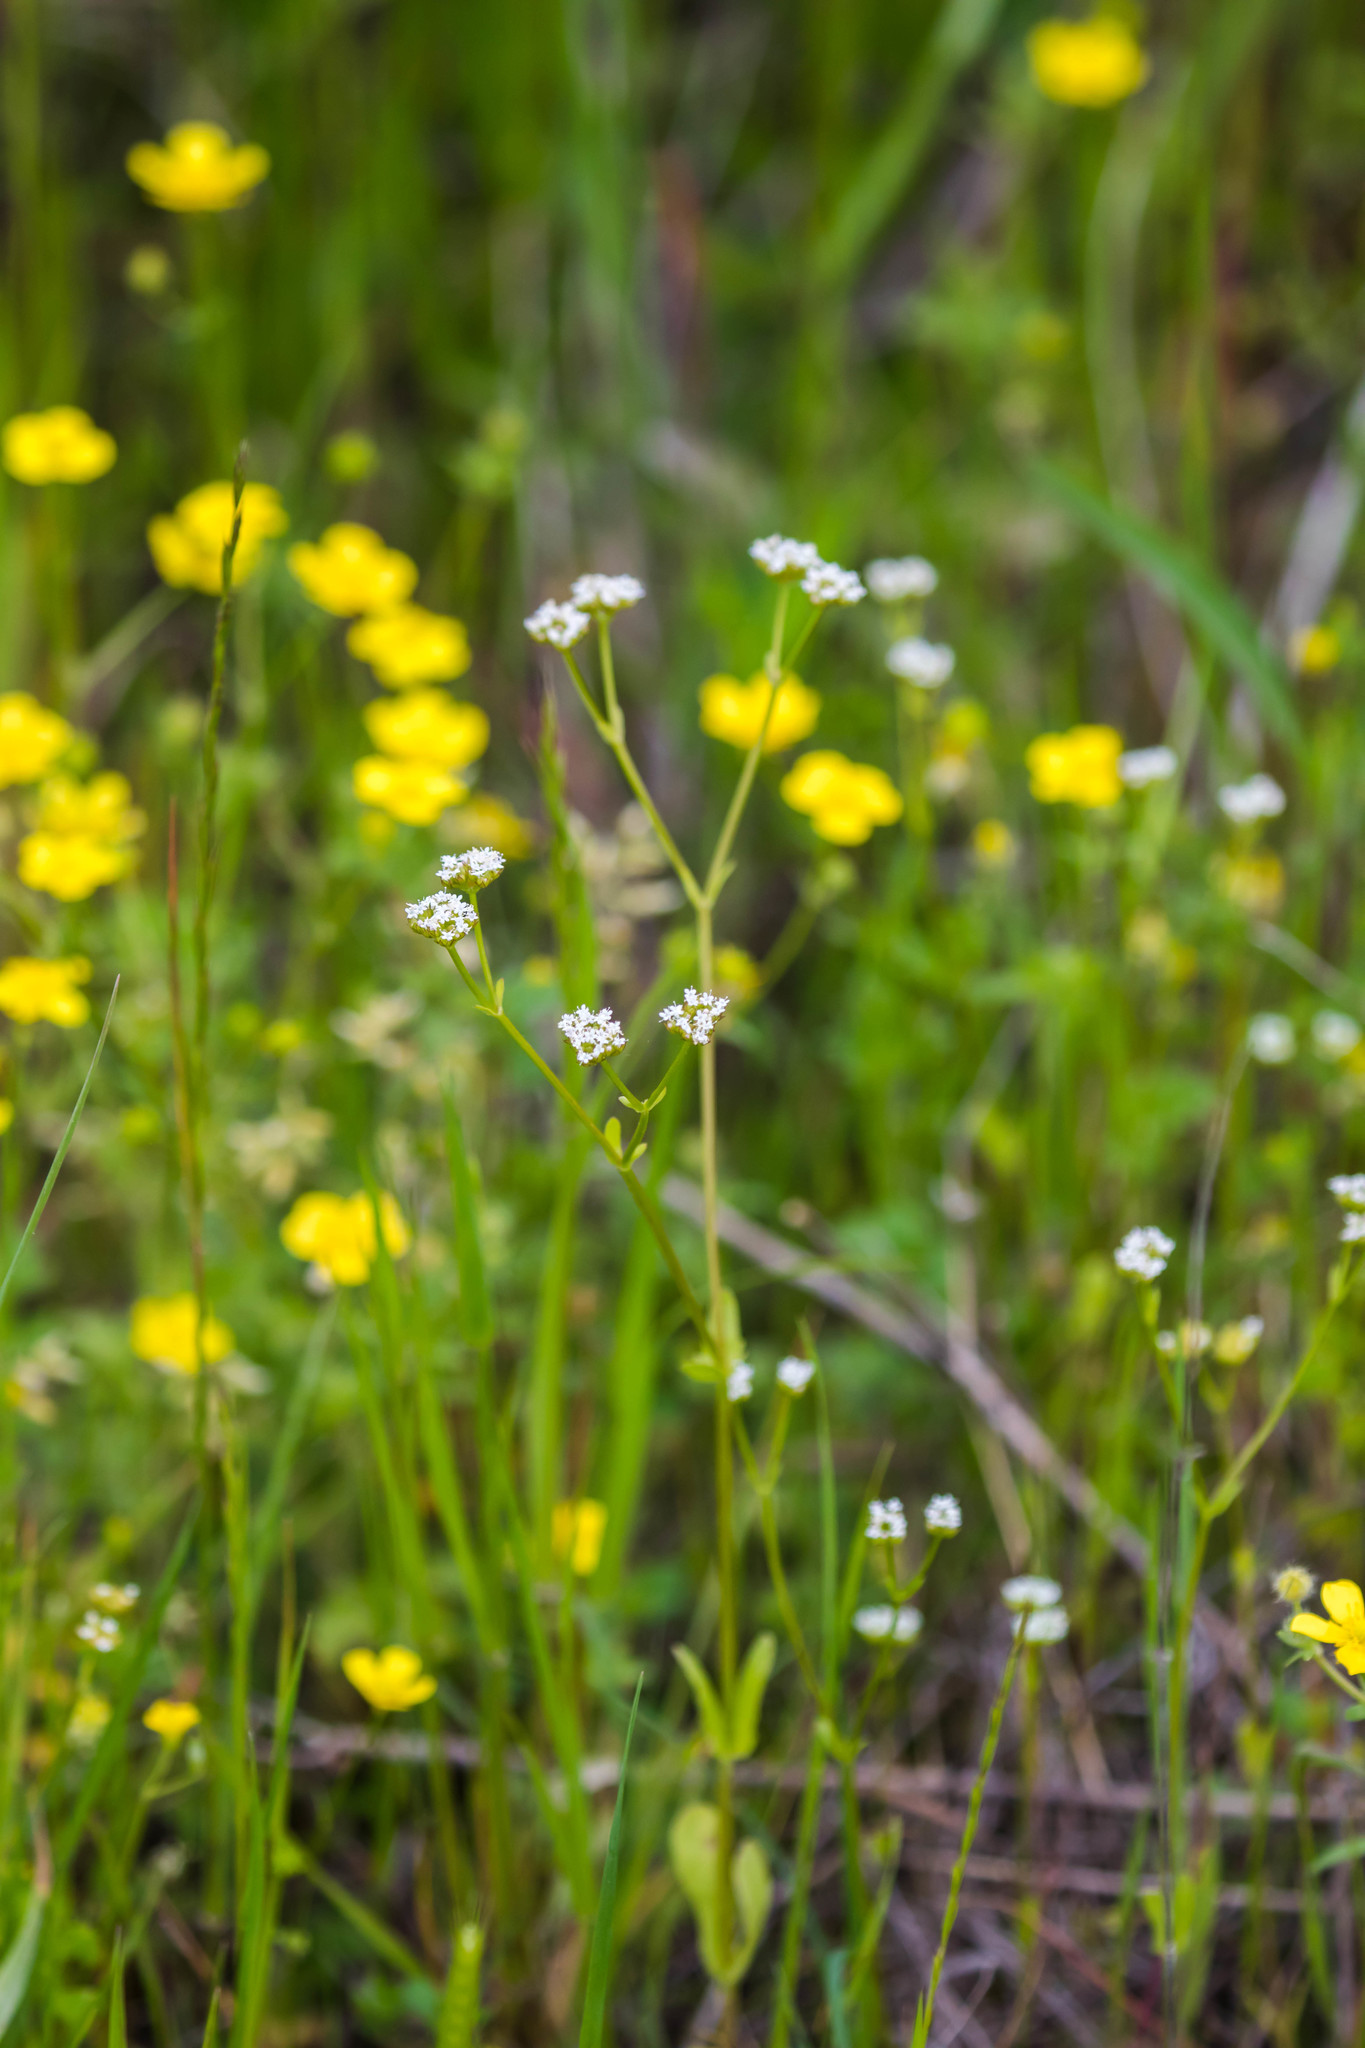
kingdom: Plantae
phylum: Tracheophyta
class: Magnoliopsida
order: Dipsacales
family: Caprifoliaceae
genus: Valerianella
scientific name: Valerianella radiata
